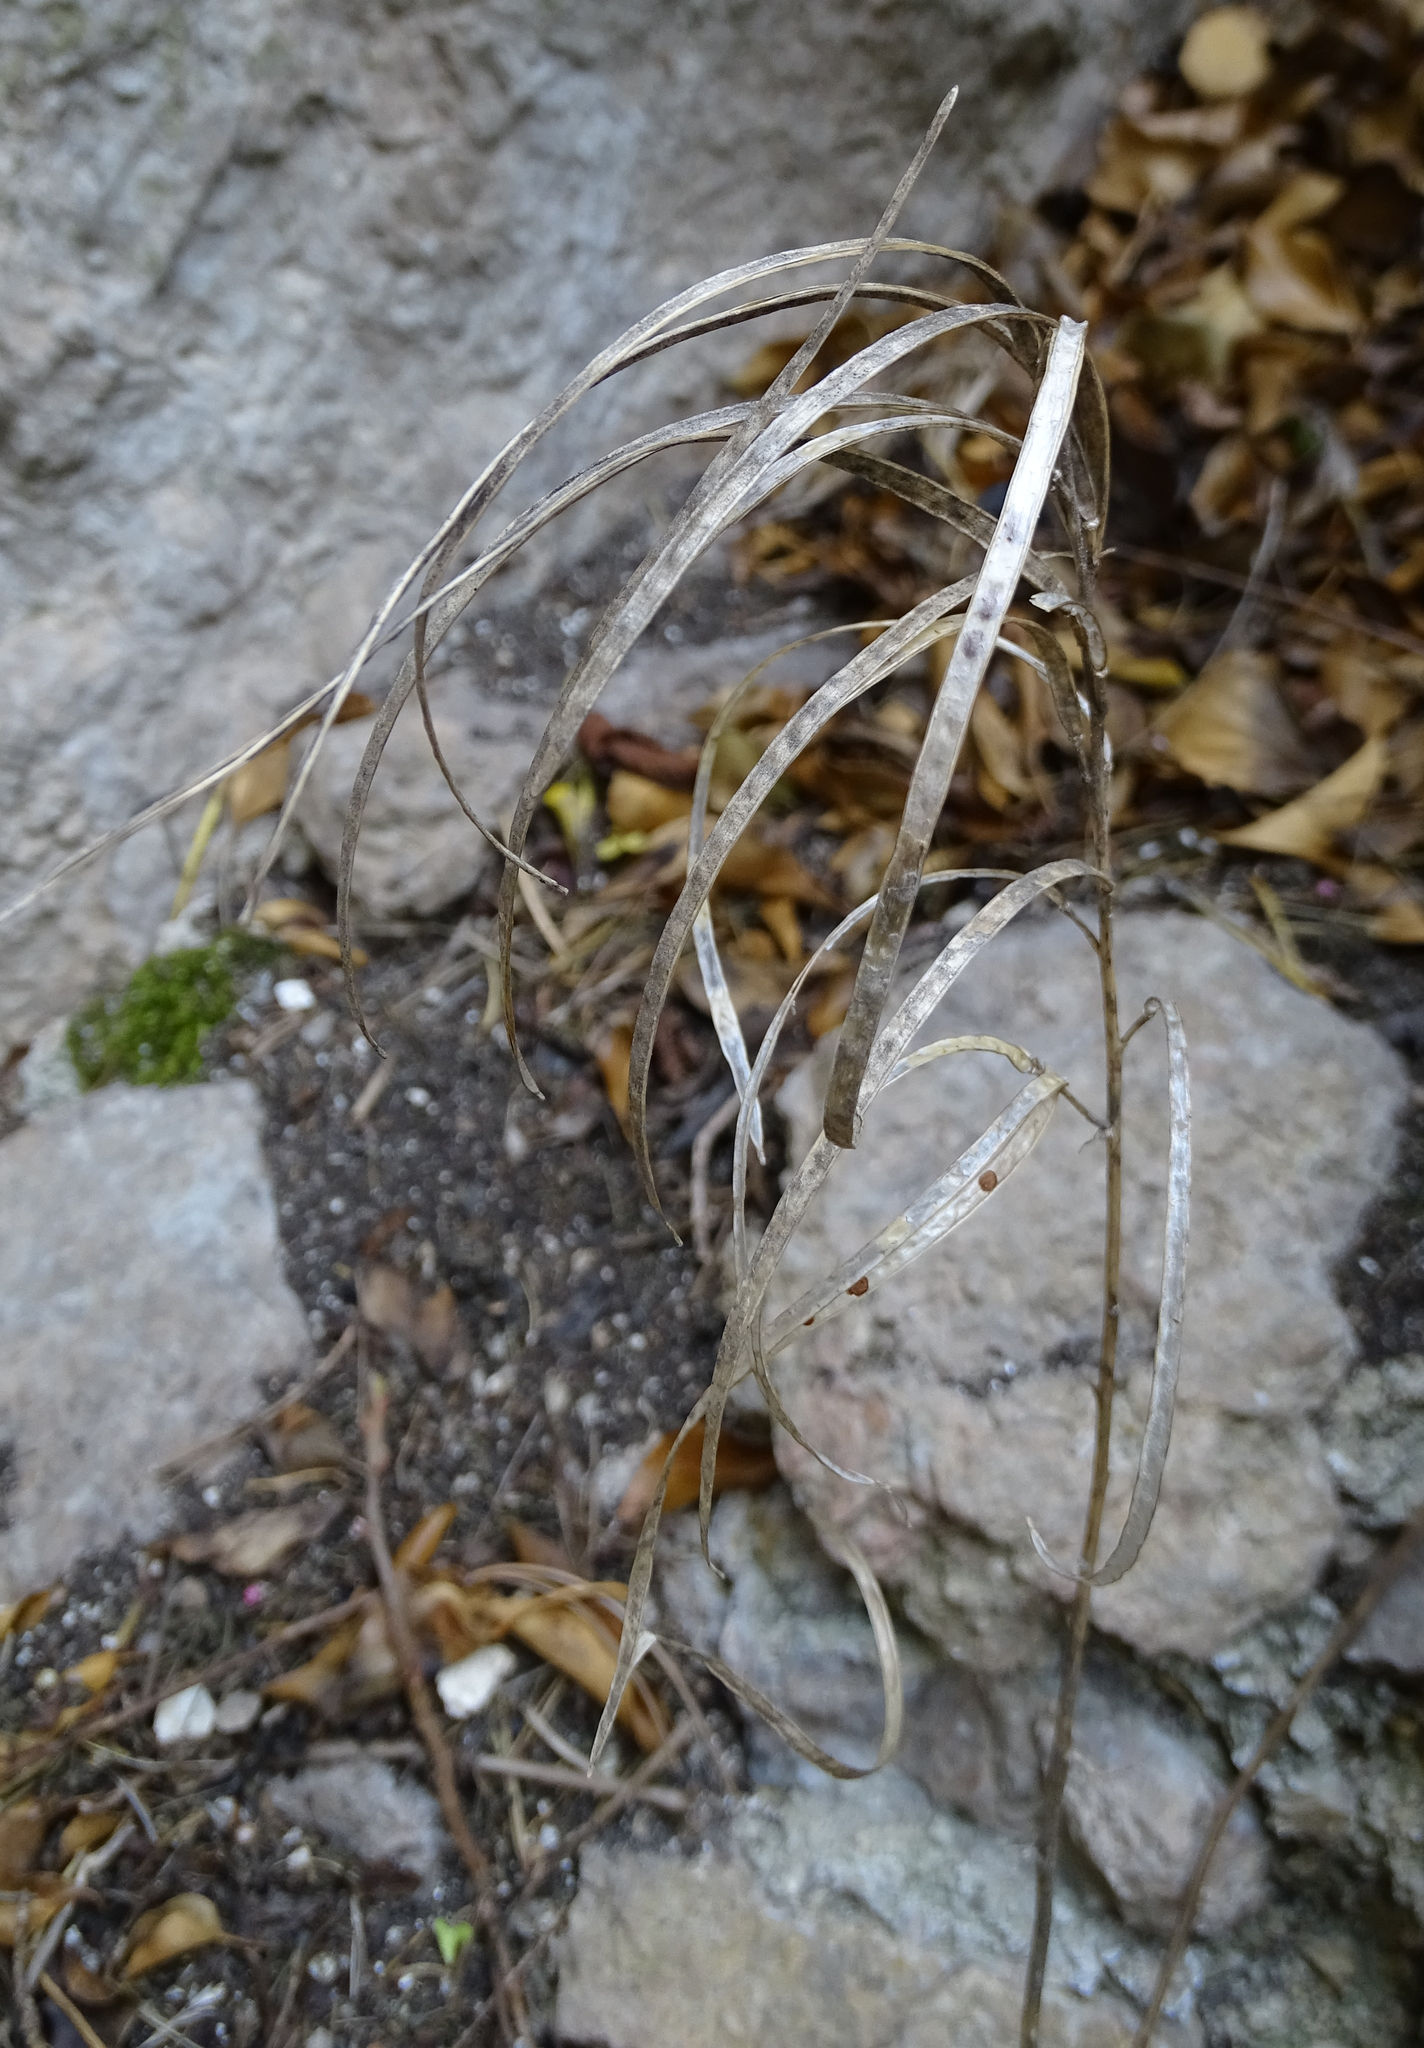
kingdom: Plantae
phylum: Tracheophyta
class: Magnoliopsida
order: Brassicales
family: Brassicaceae
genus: Pseudoturritis
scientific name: Pseudoturritis turrita
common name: Tower cress
